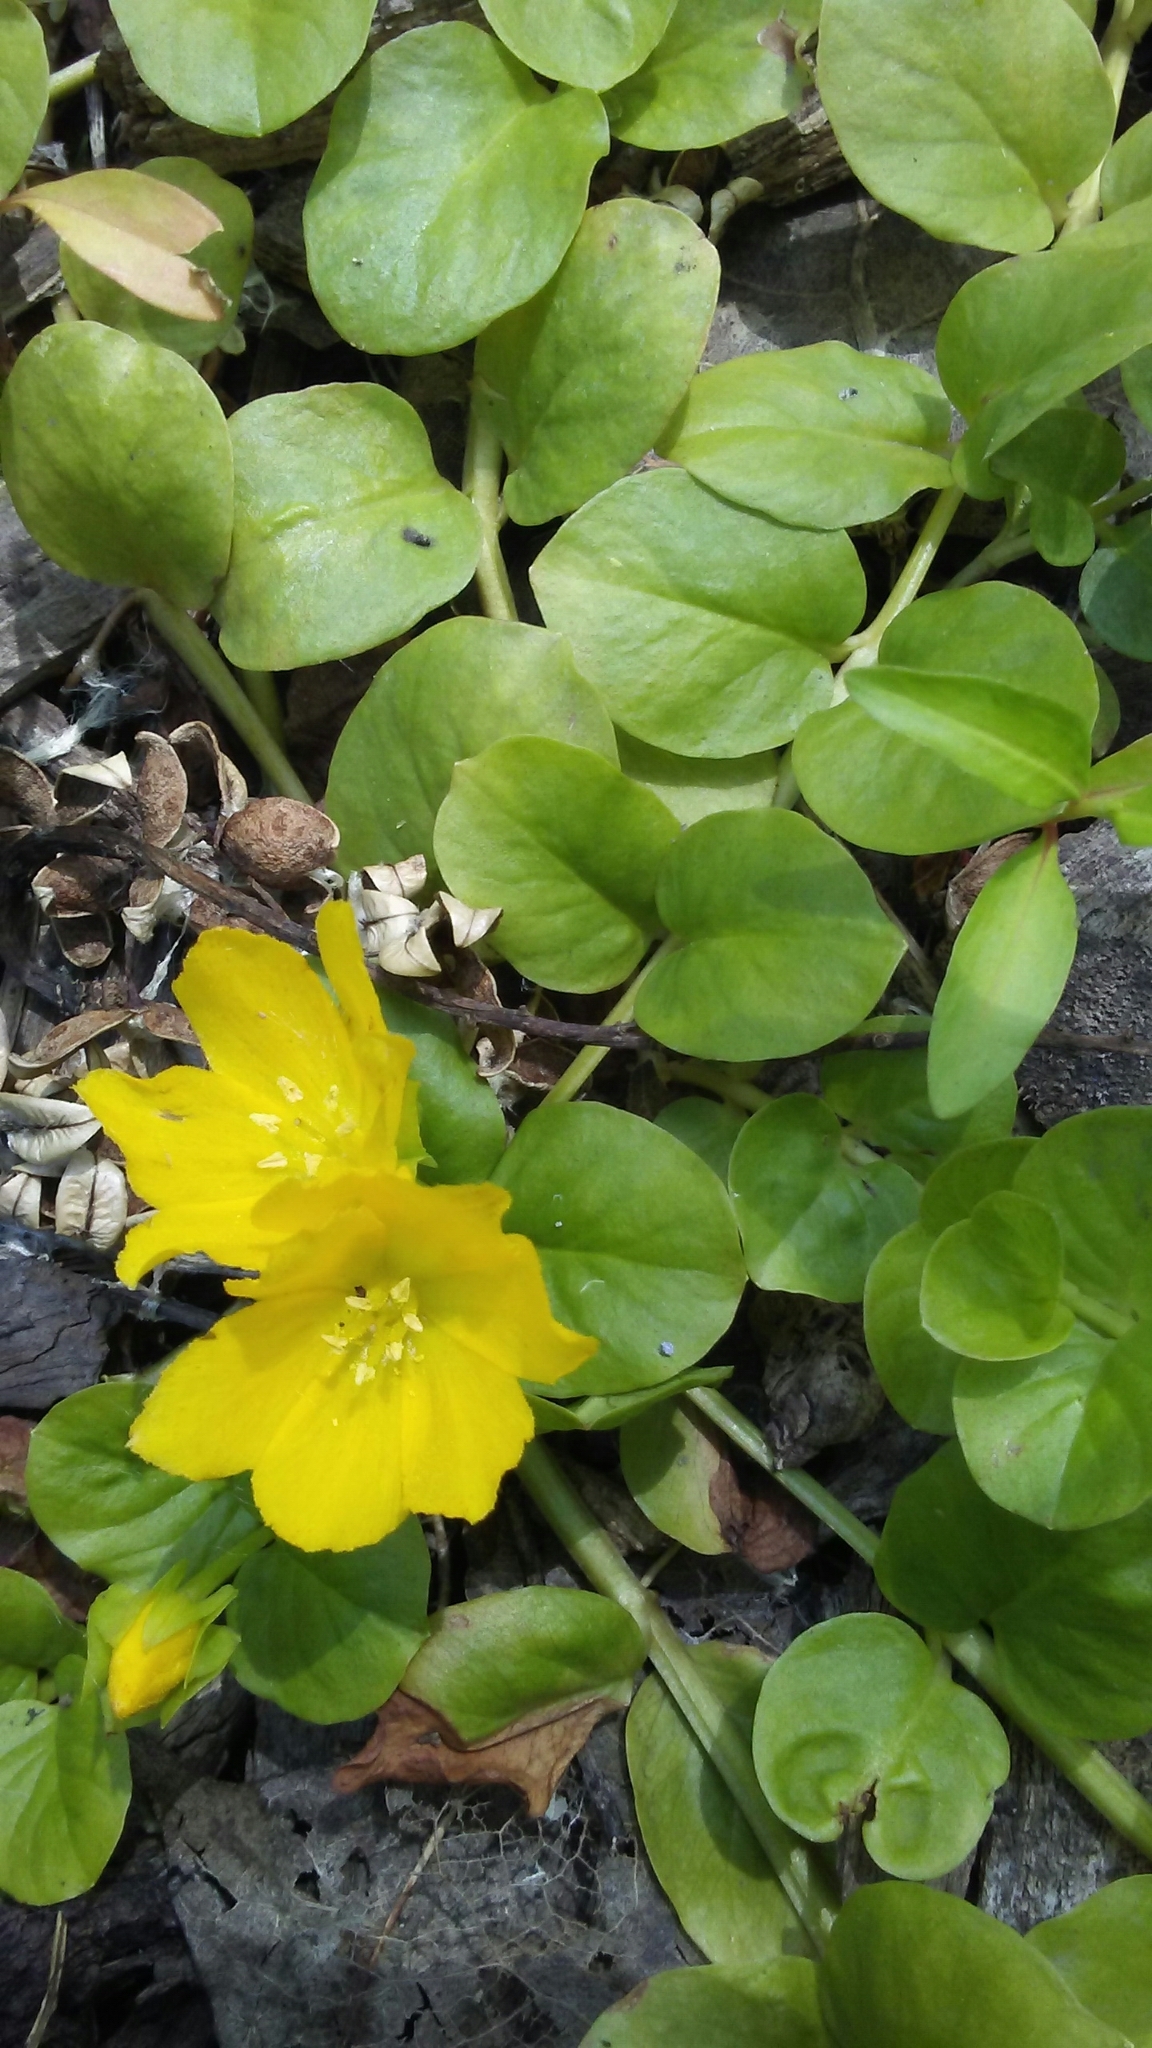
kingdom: Plantae
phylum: Tracheophyta
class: Magnoliopsida
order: Ericales
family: Primulaceae
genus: Lysimachia
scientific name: Lysimachia nummularia
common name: Moneywort
